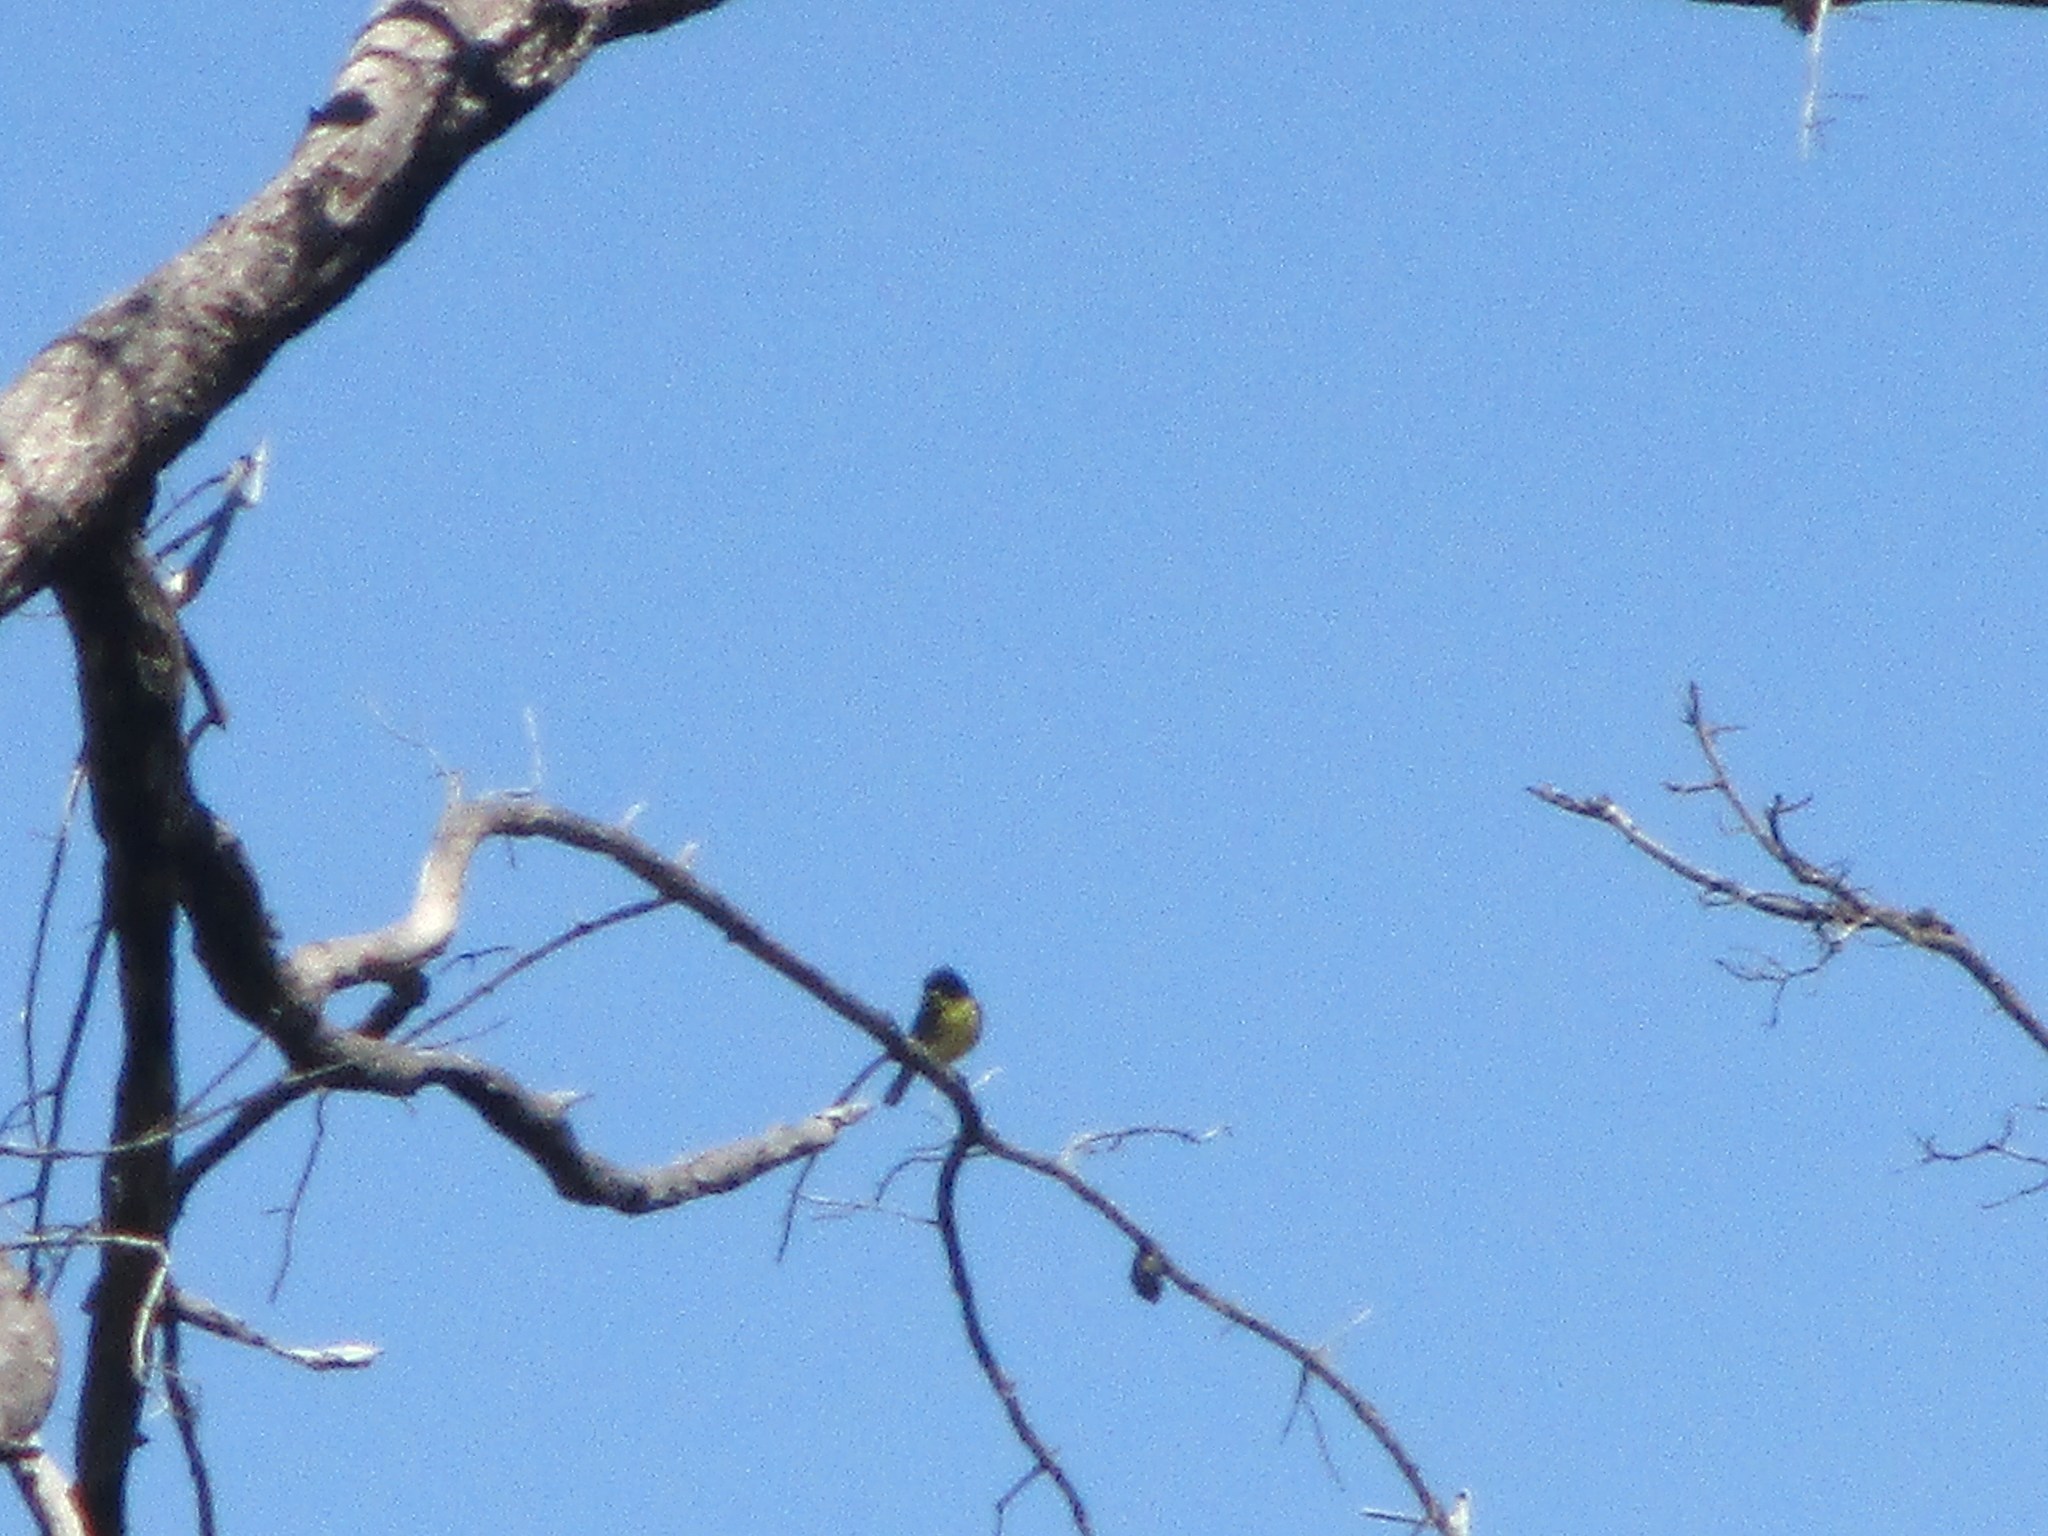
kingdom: Animalia
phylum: Chordata
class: Aves
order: Passeriformes
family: Parulidae
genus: Setophaga
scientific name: Setophaga kirtlandii
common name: Kirtland's warbler
